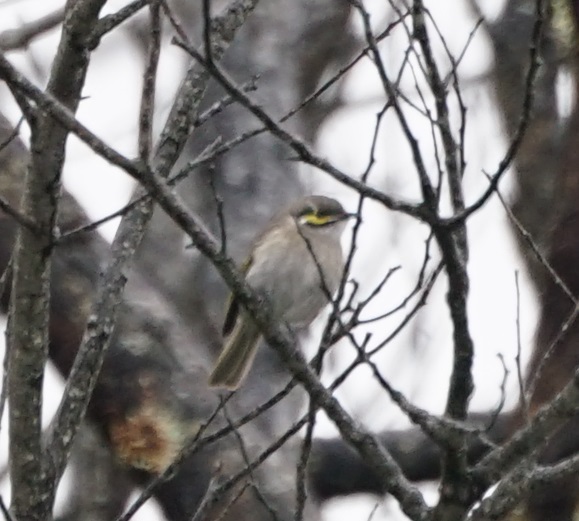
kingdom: Animalia
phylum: Chordata
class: Aves
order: Passeriformes
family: Meliphagidae
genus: Caligavis
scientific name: Caligavis chrysops
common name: Yellow-faced honeyeater
